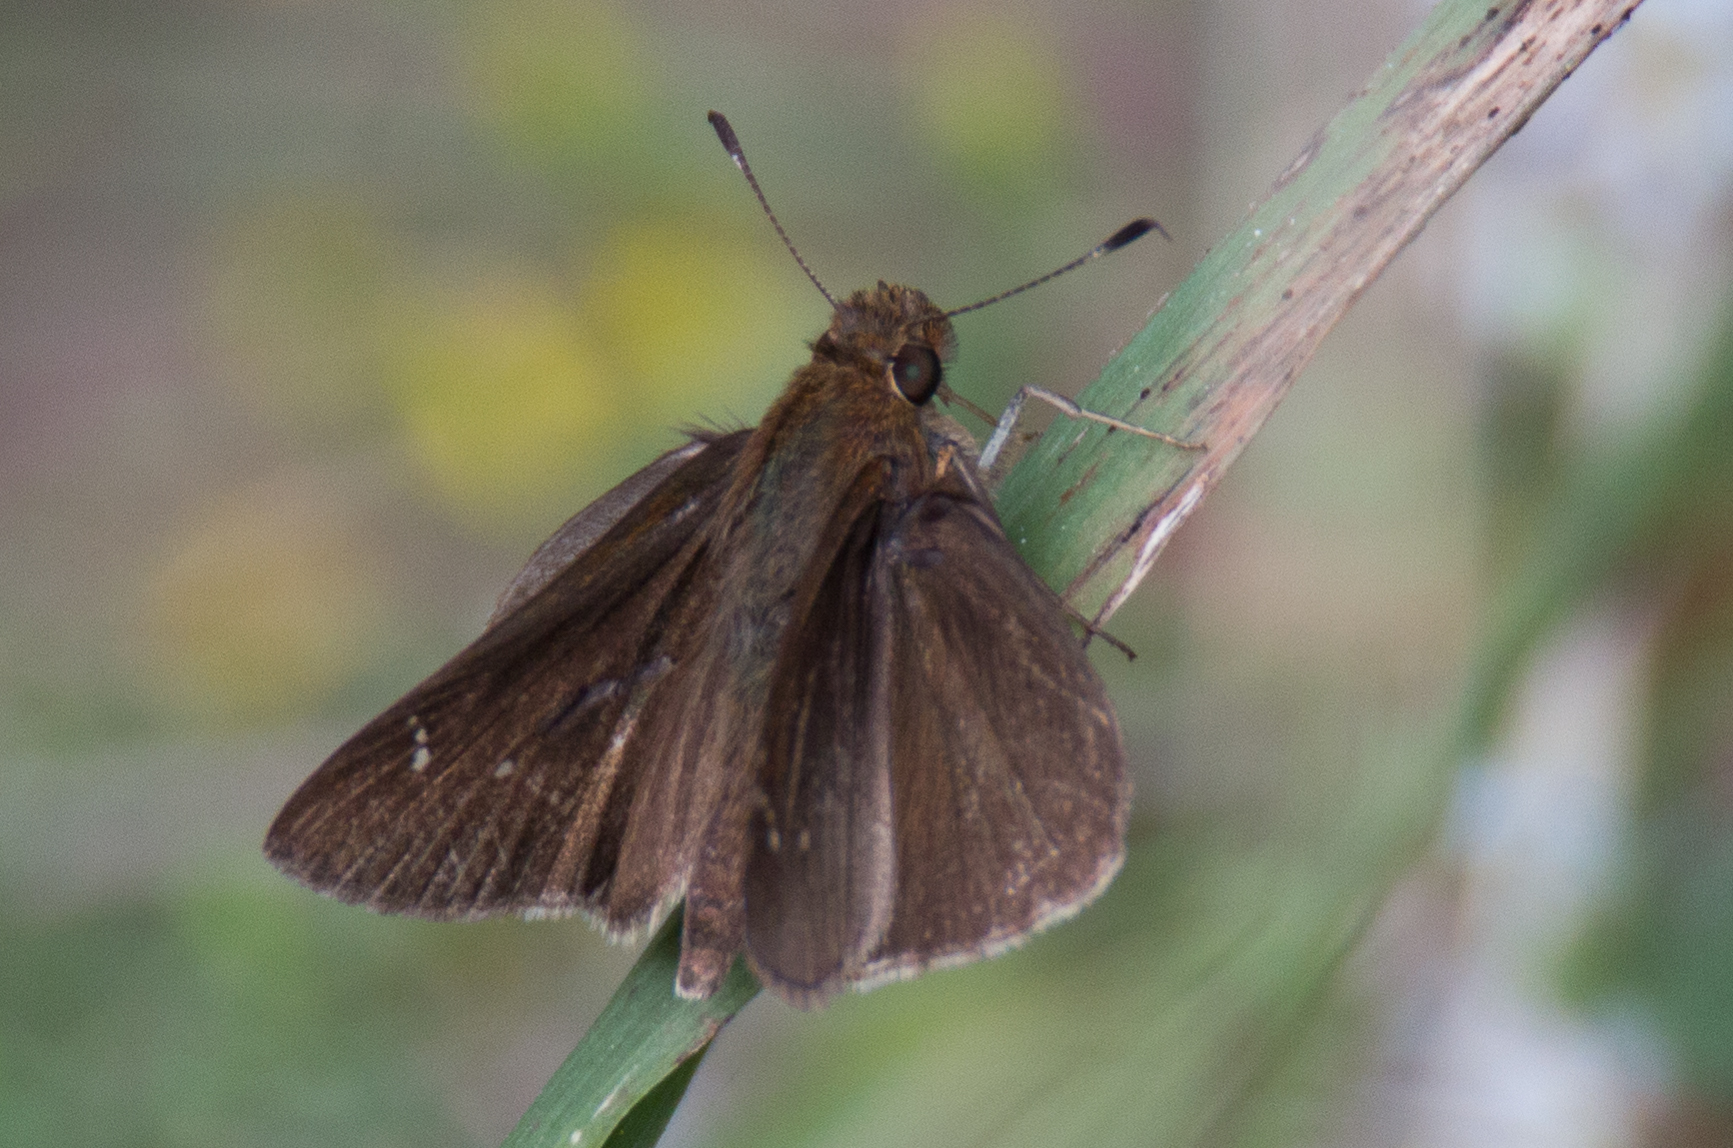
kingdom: Animalia
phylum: Arthropoda
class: Insecta
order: Lepidoptera
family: Hesperiidae
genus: Lerema
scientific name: Lerema accius
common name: Clouded skipper
